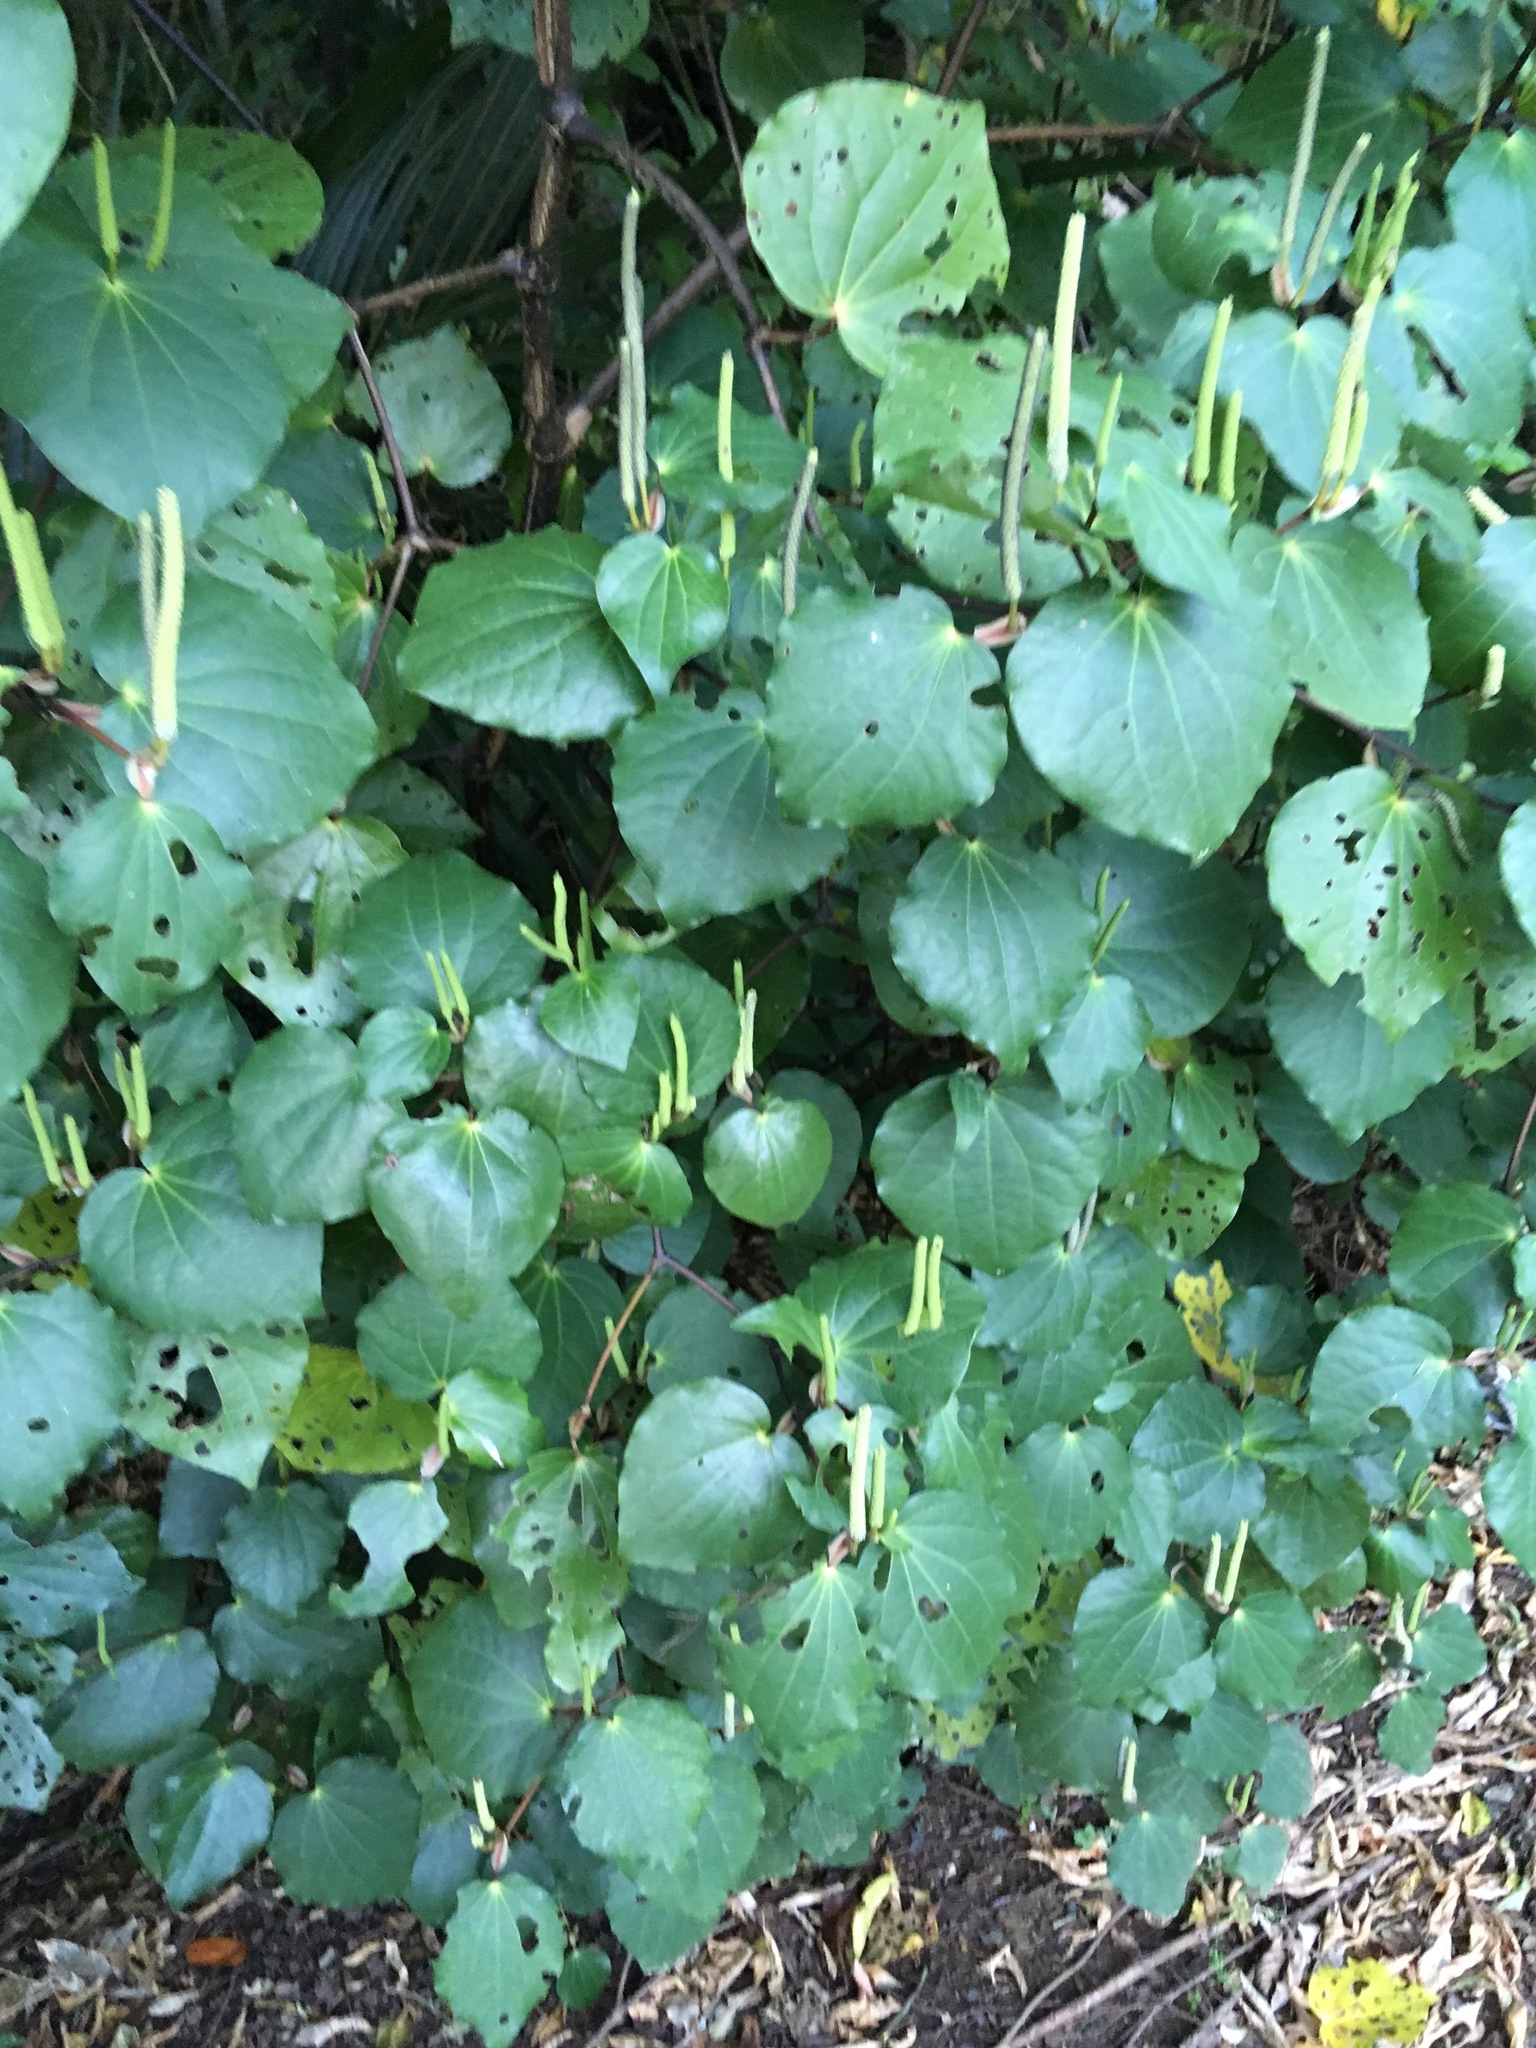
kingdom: Plantae
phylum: Tracheophyta
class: Magnoliopsida
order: Piperales
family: Piperaceae
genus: Macropiper
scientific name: Macropiper excelsum
